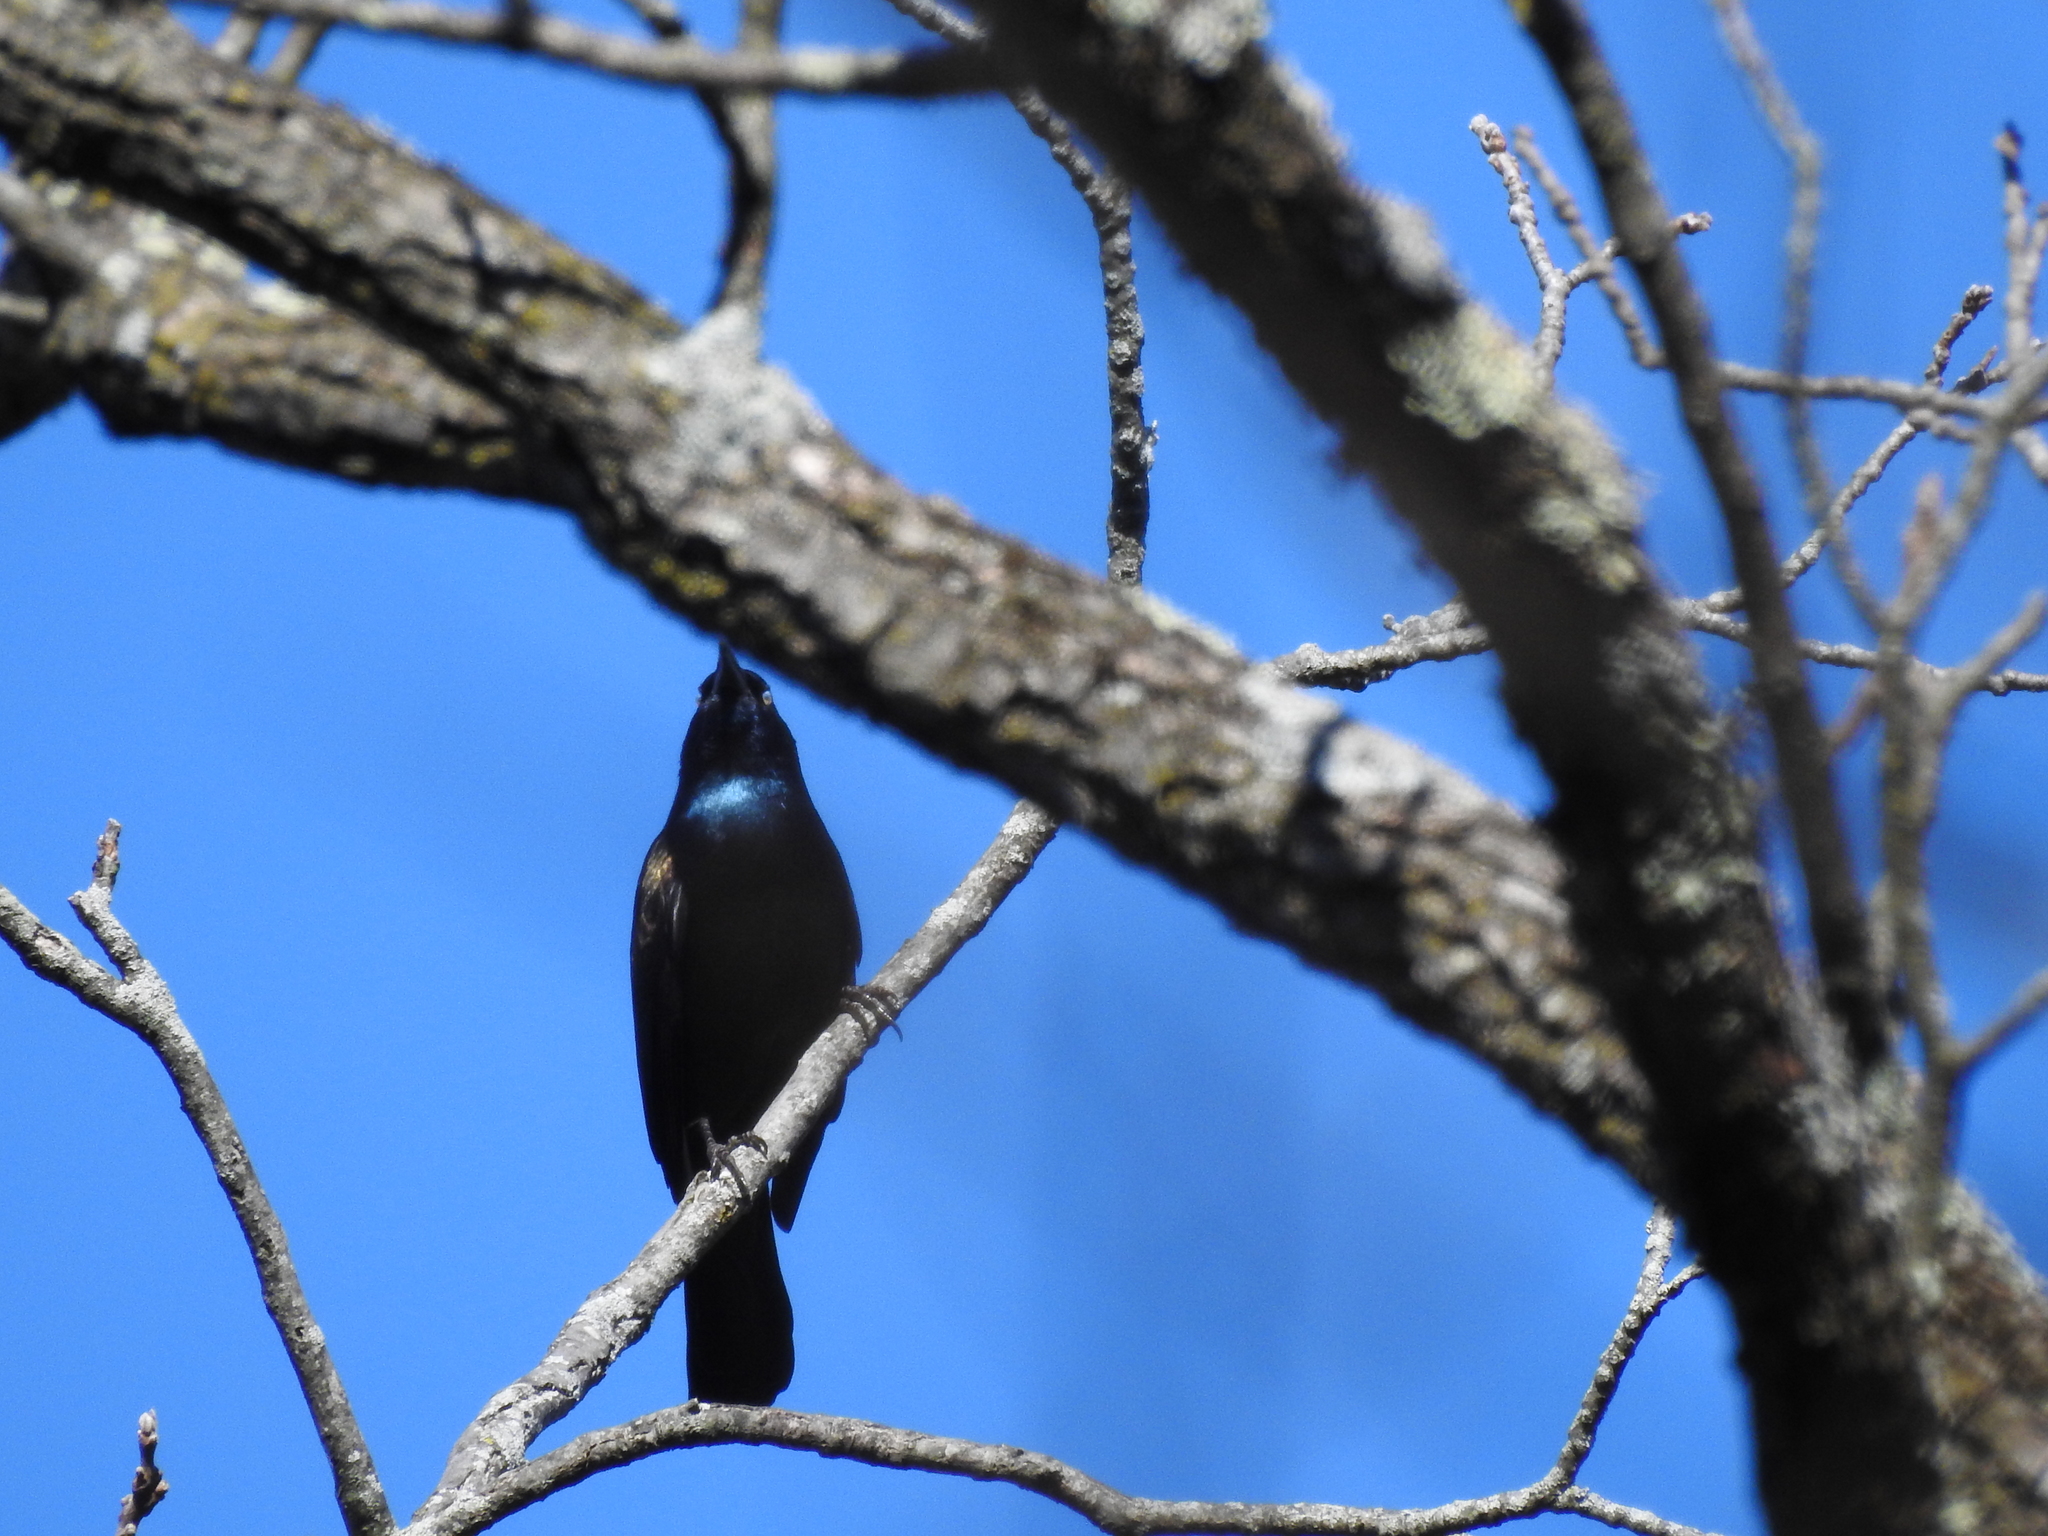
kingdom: Animalia
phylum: Chordata
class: Aves
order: Passeriformes
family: Icteridae
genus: Quiscalus
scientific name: Quiscalus quiscula
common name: Common grackle
